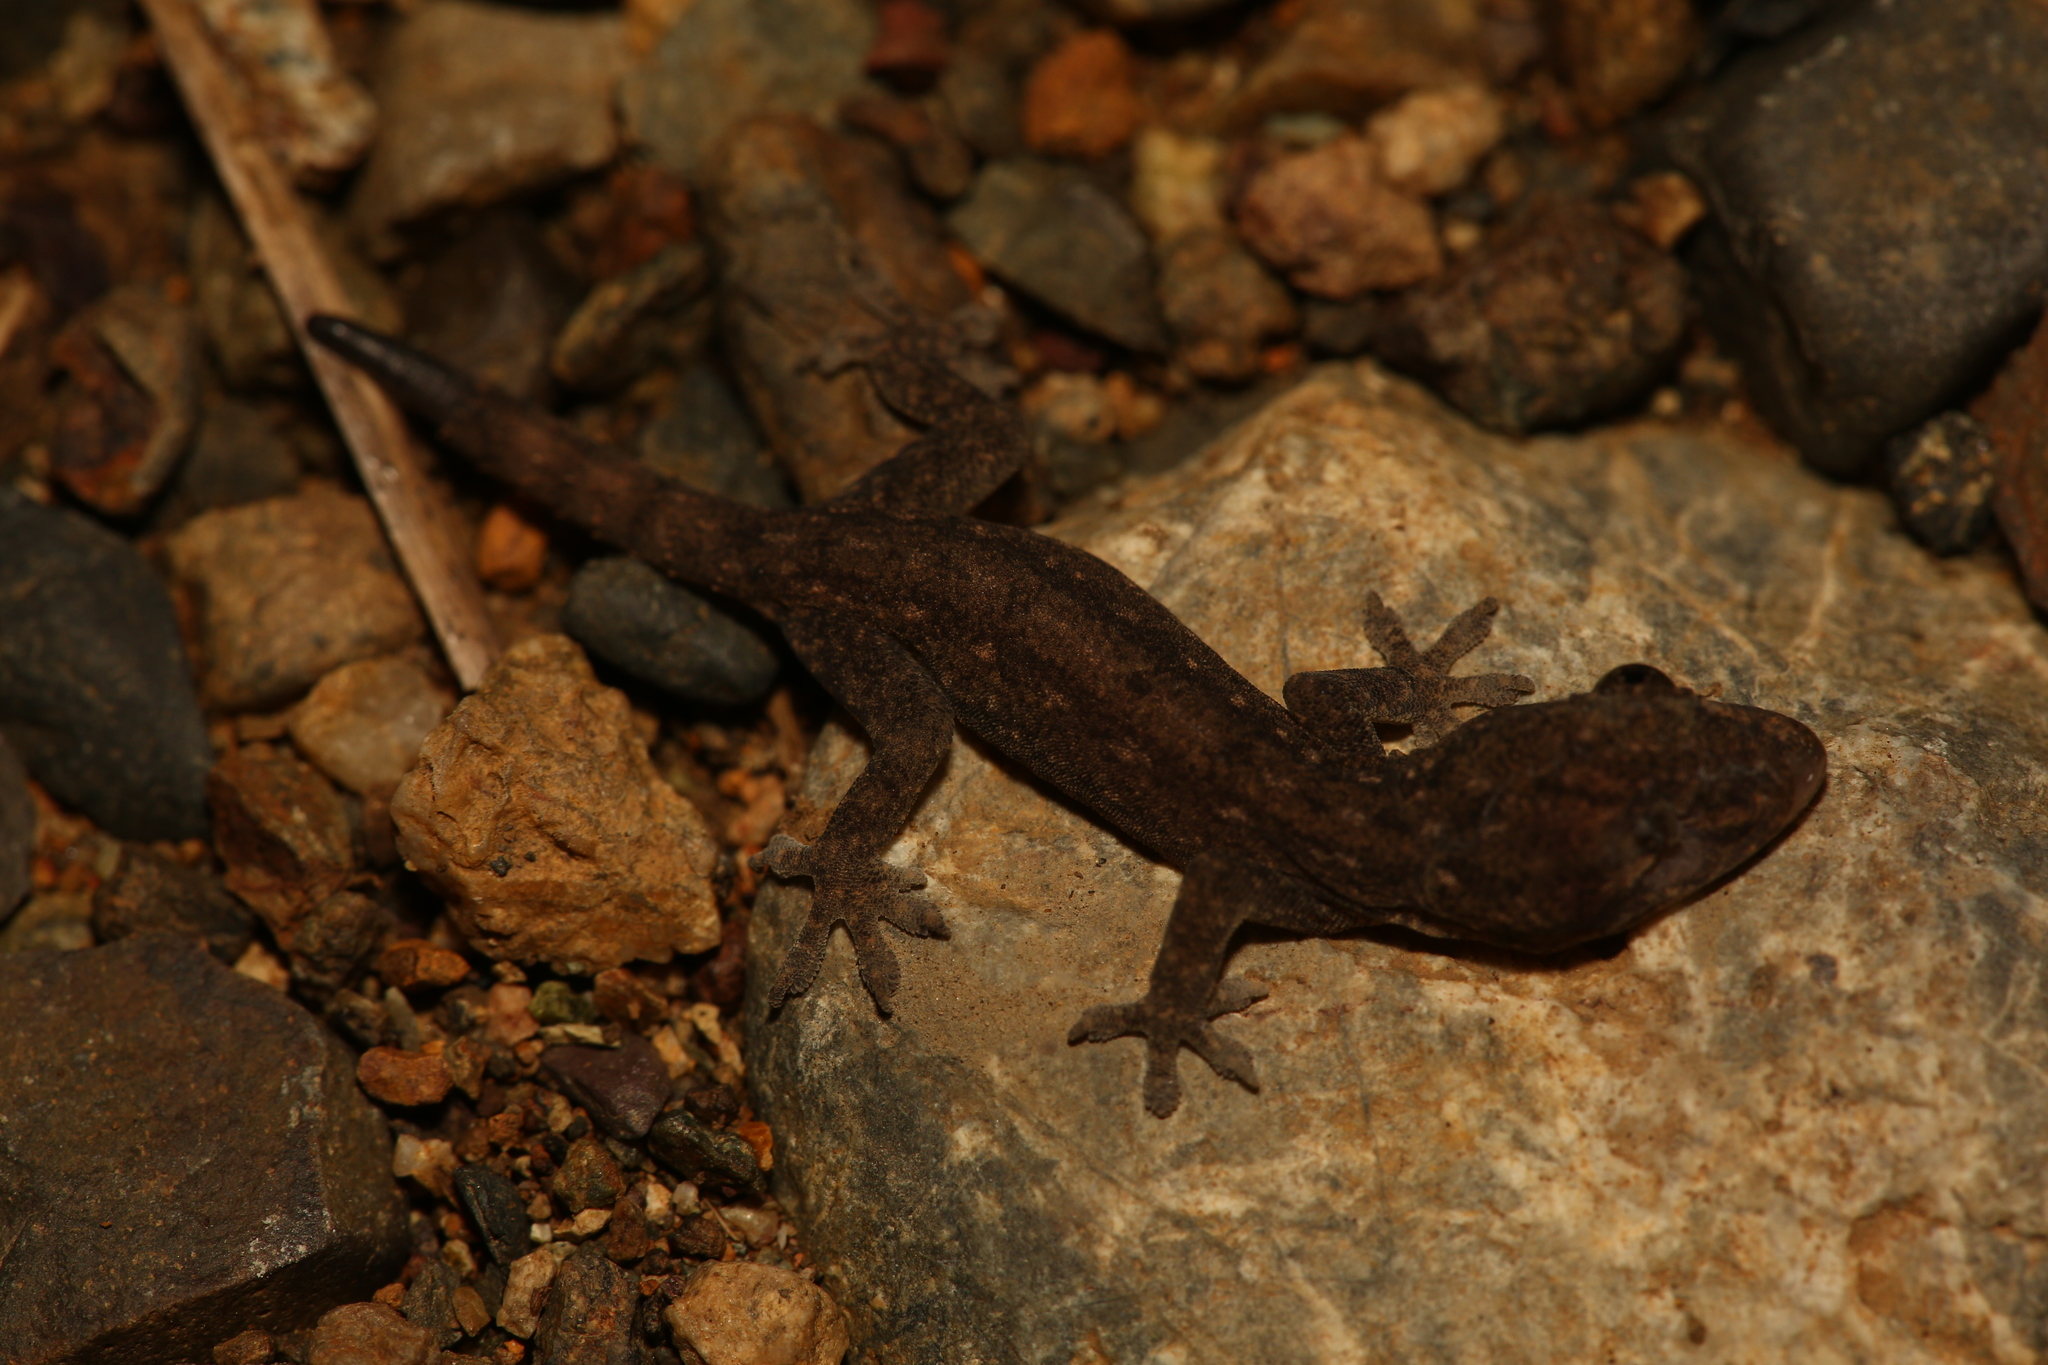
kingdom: Animalia
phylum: Chordata
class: Squamata
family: Gekkonidae
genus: Hemidactylus
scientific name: Hemidactylus frenatus
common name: Common house gecko
